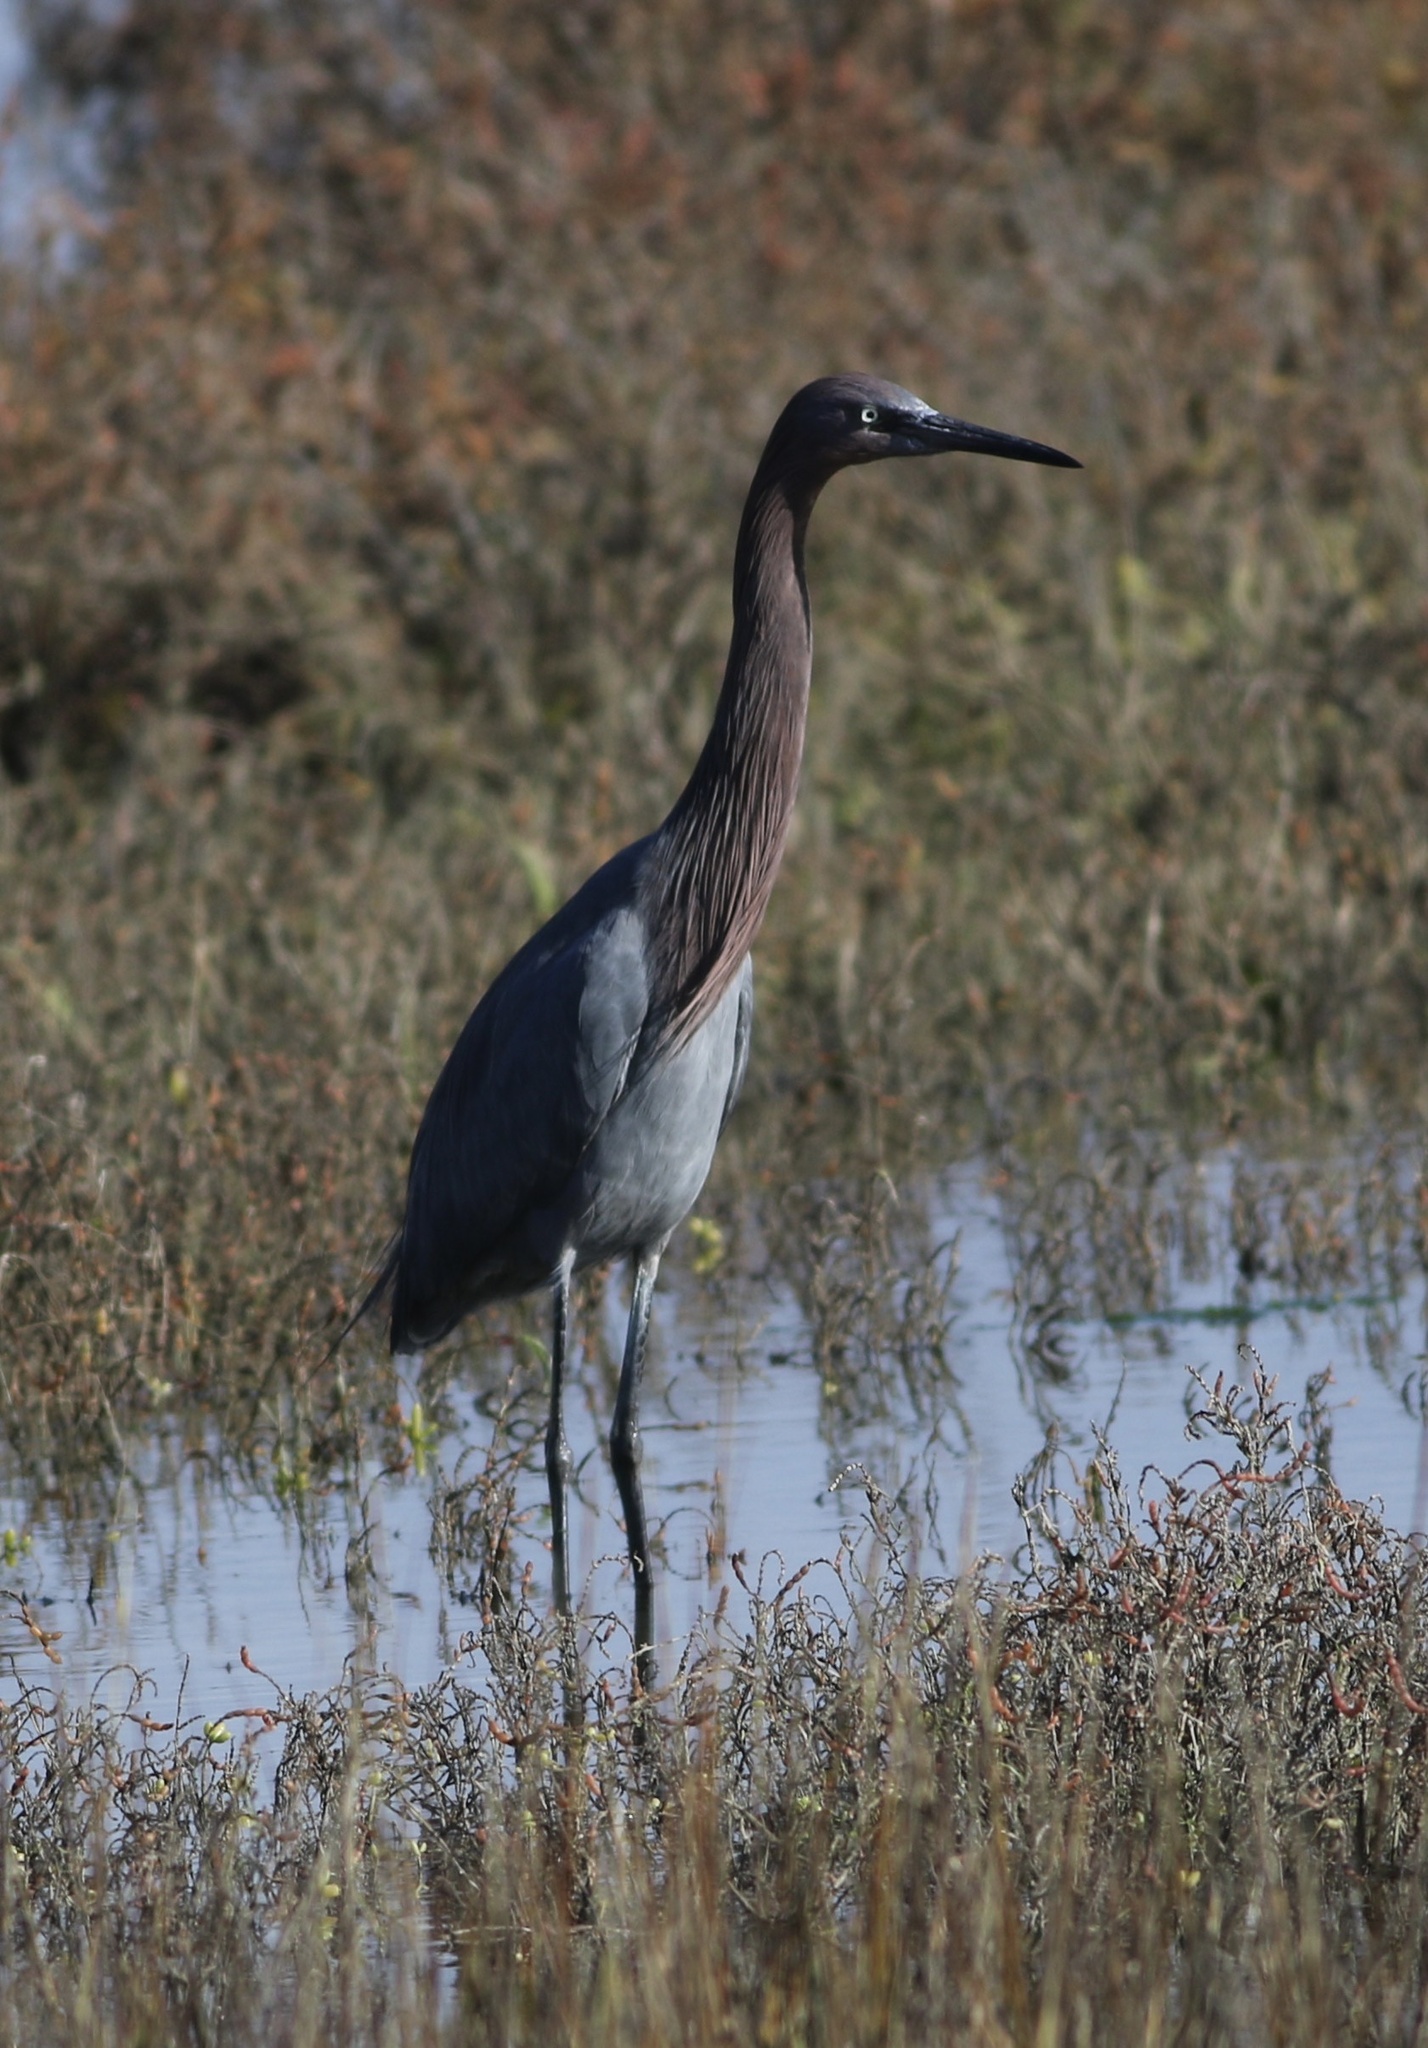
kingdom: Animalia
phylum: Chordata
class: Aves
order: Pelecaniformes
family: Ardeidae
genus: Egretta
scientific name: Egretta rufescens
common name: Reddish egret
